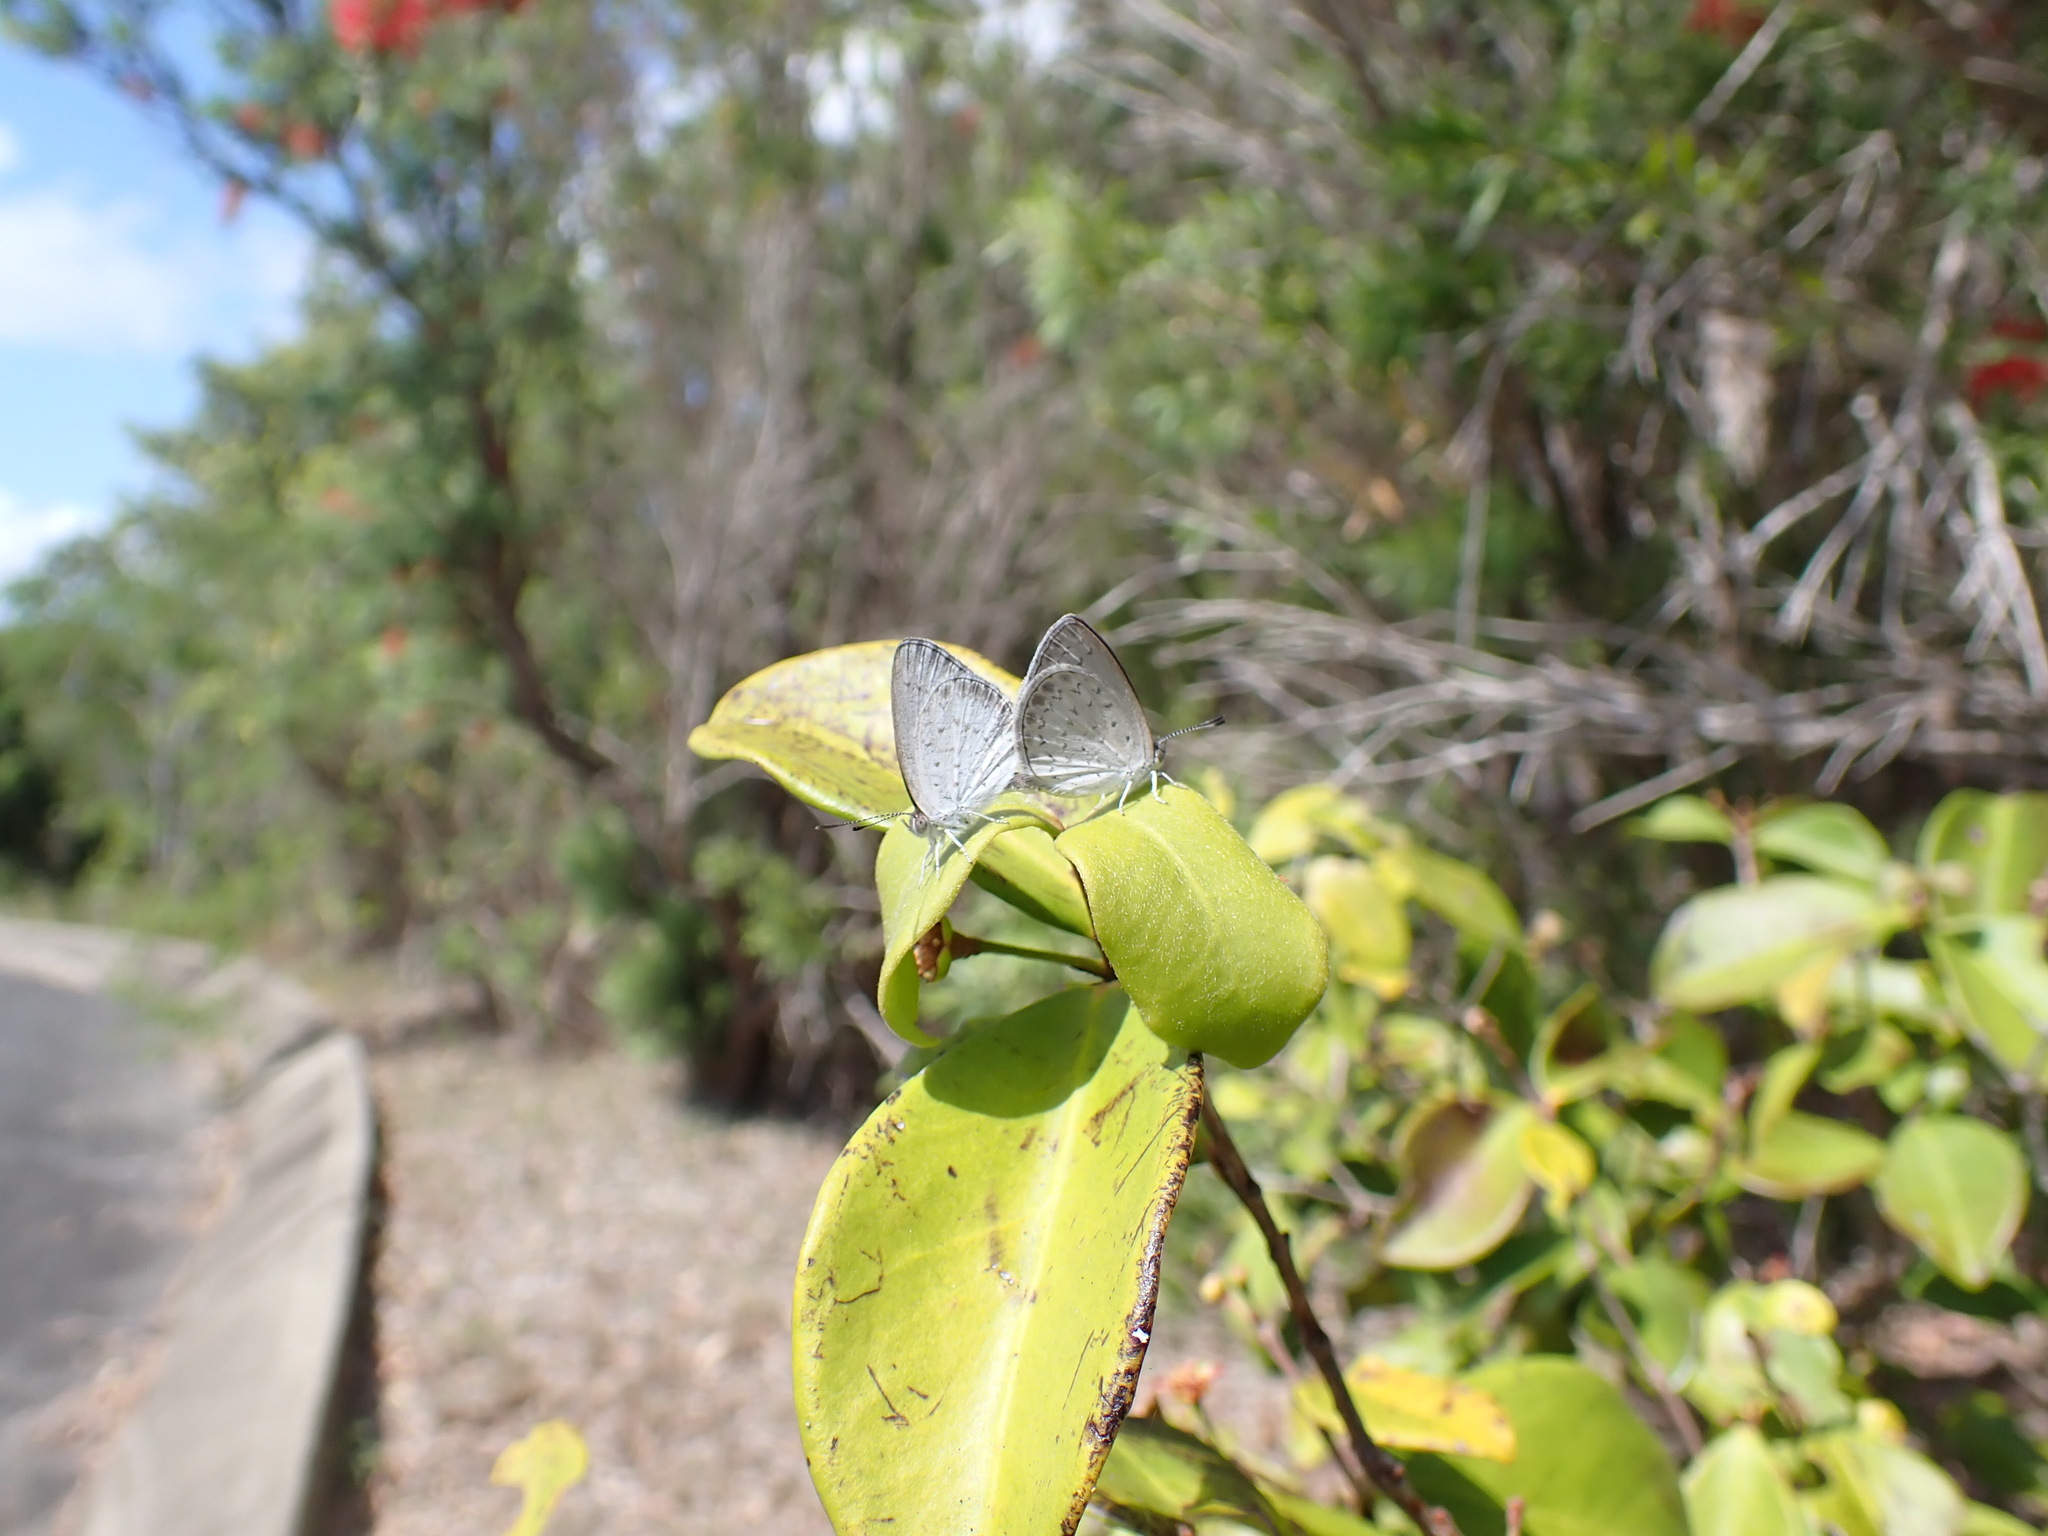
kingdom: Animalia
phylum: Arthropoda
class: Insecta
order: Lepidoptera
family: Lycaenidae
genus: Candalides
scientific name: Candalides
